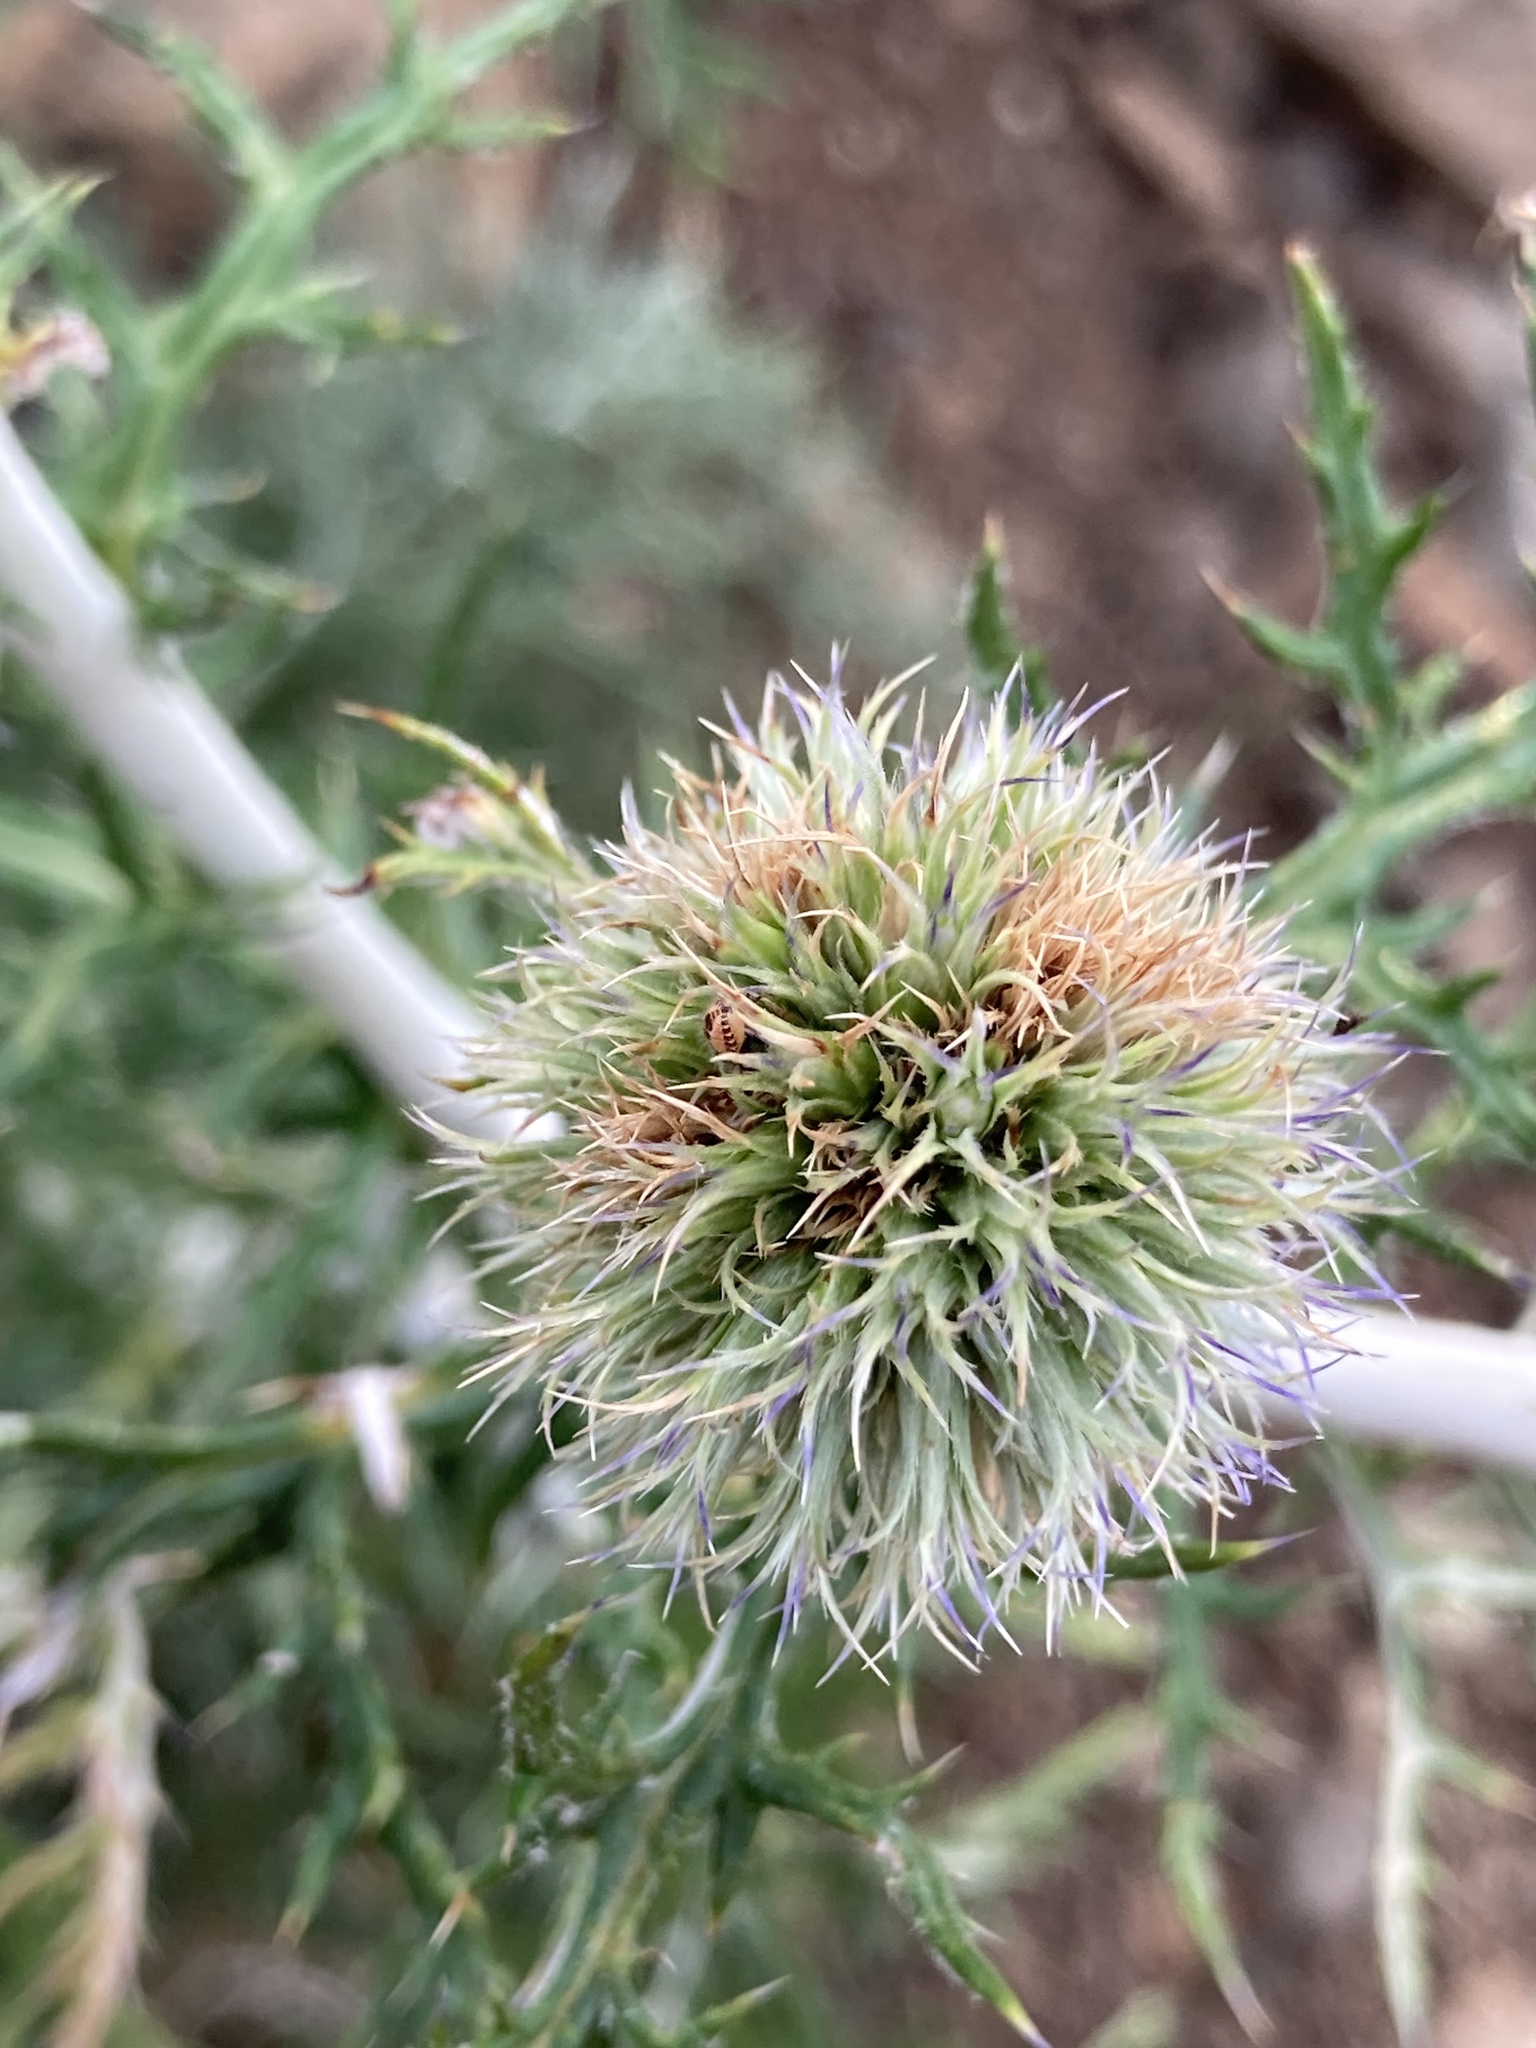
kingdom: Plantae
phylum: Tracheophyta
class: Magnoliopsida
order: Asterales
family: Asteraceae
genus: Echinops
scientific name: Echinops ritro
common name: Globe thistle
